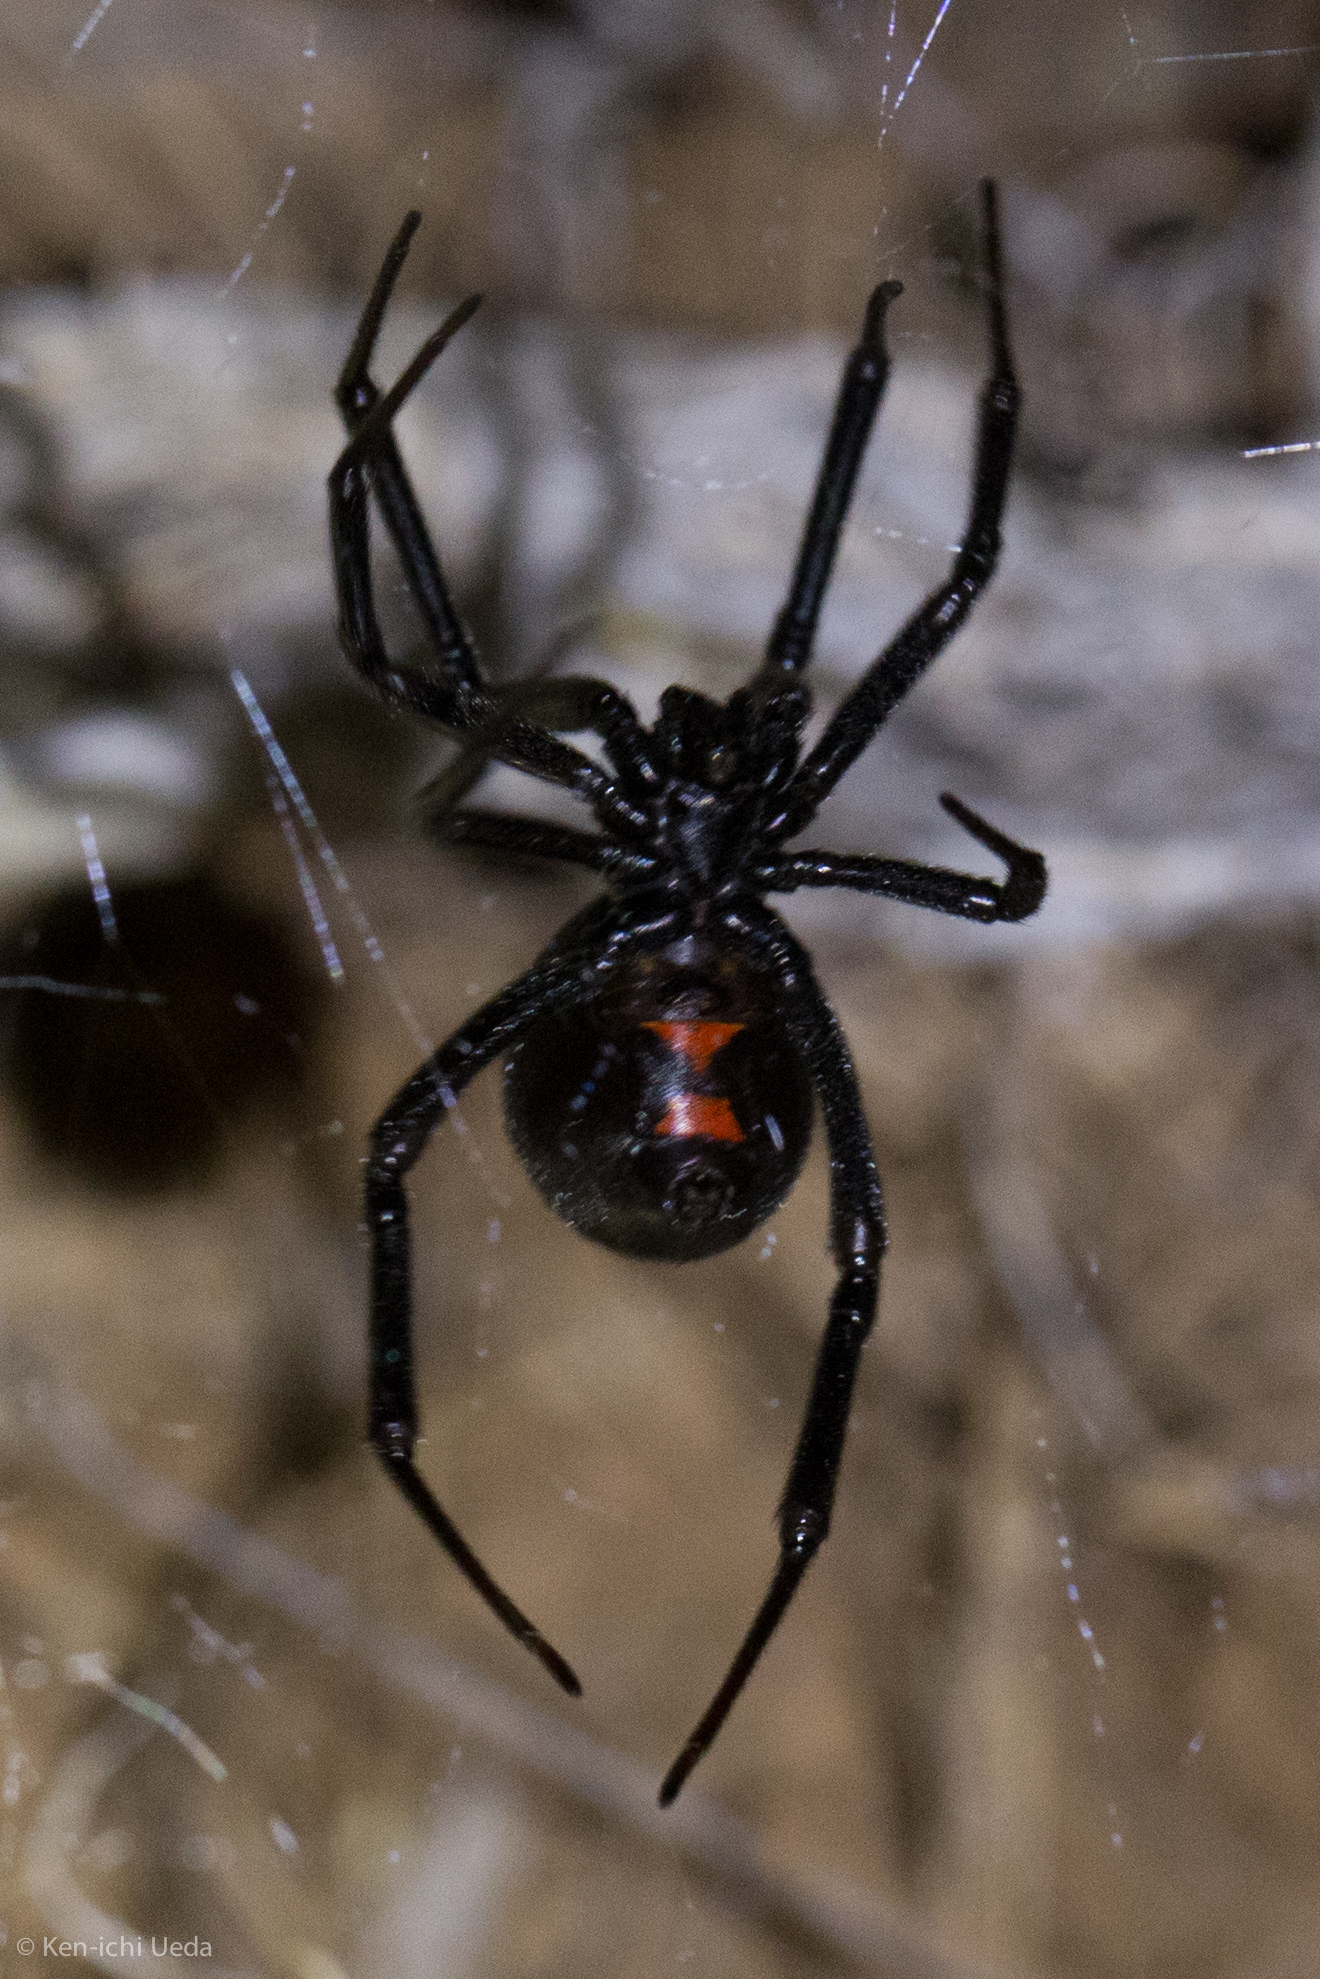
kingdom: Animalia
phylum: Arthropoda
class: Arachnida
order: Araneae
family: Theridiidae
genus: Latrodectus
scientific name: Latrodectus hesperus
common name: Western black widow
